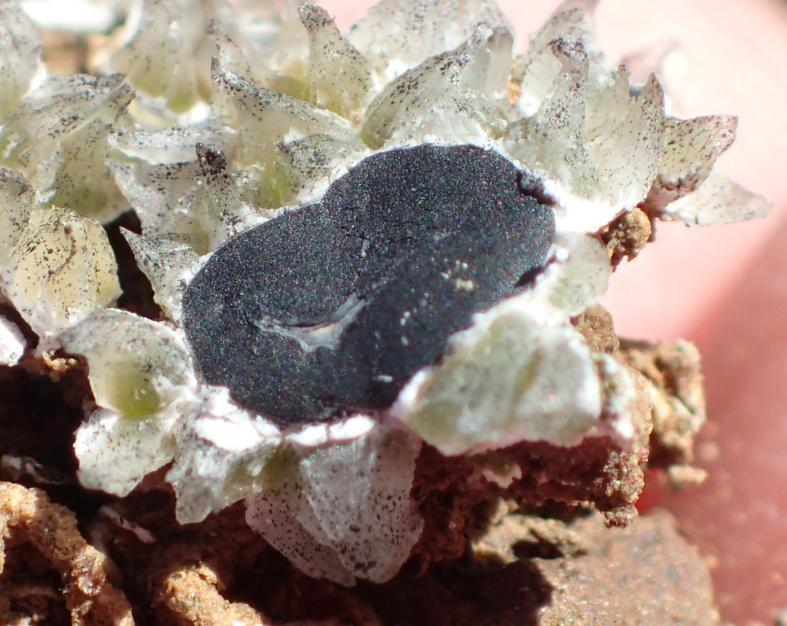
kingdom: Fungi
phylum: Ascomycota
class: Lecanoromycetes
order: Lecanorales
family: Psoraceae
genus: Eremastrella
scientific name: Eremastrella
